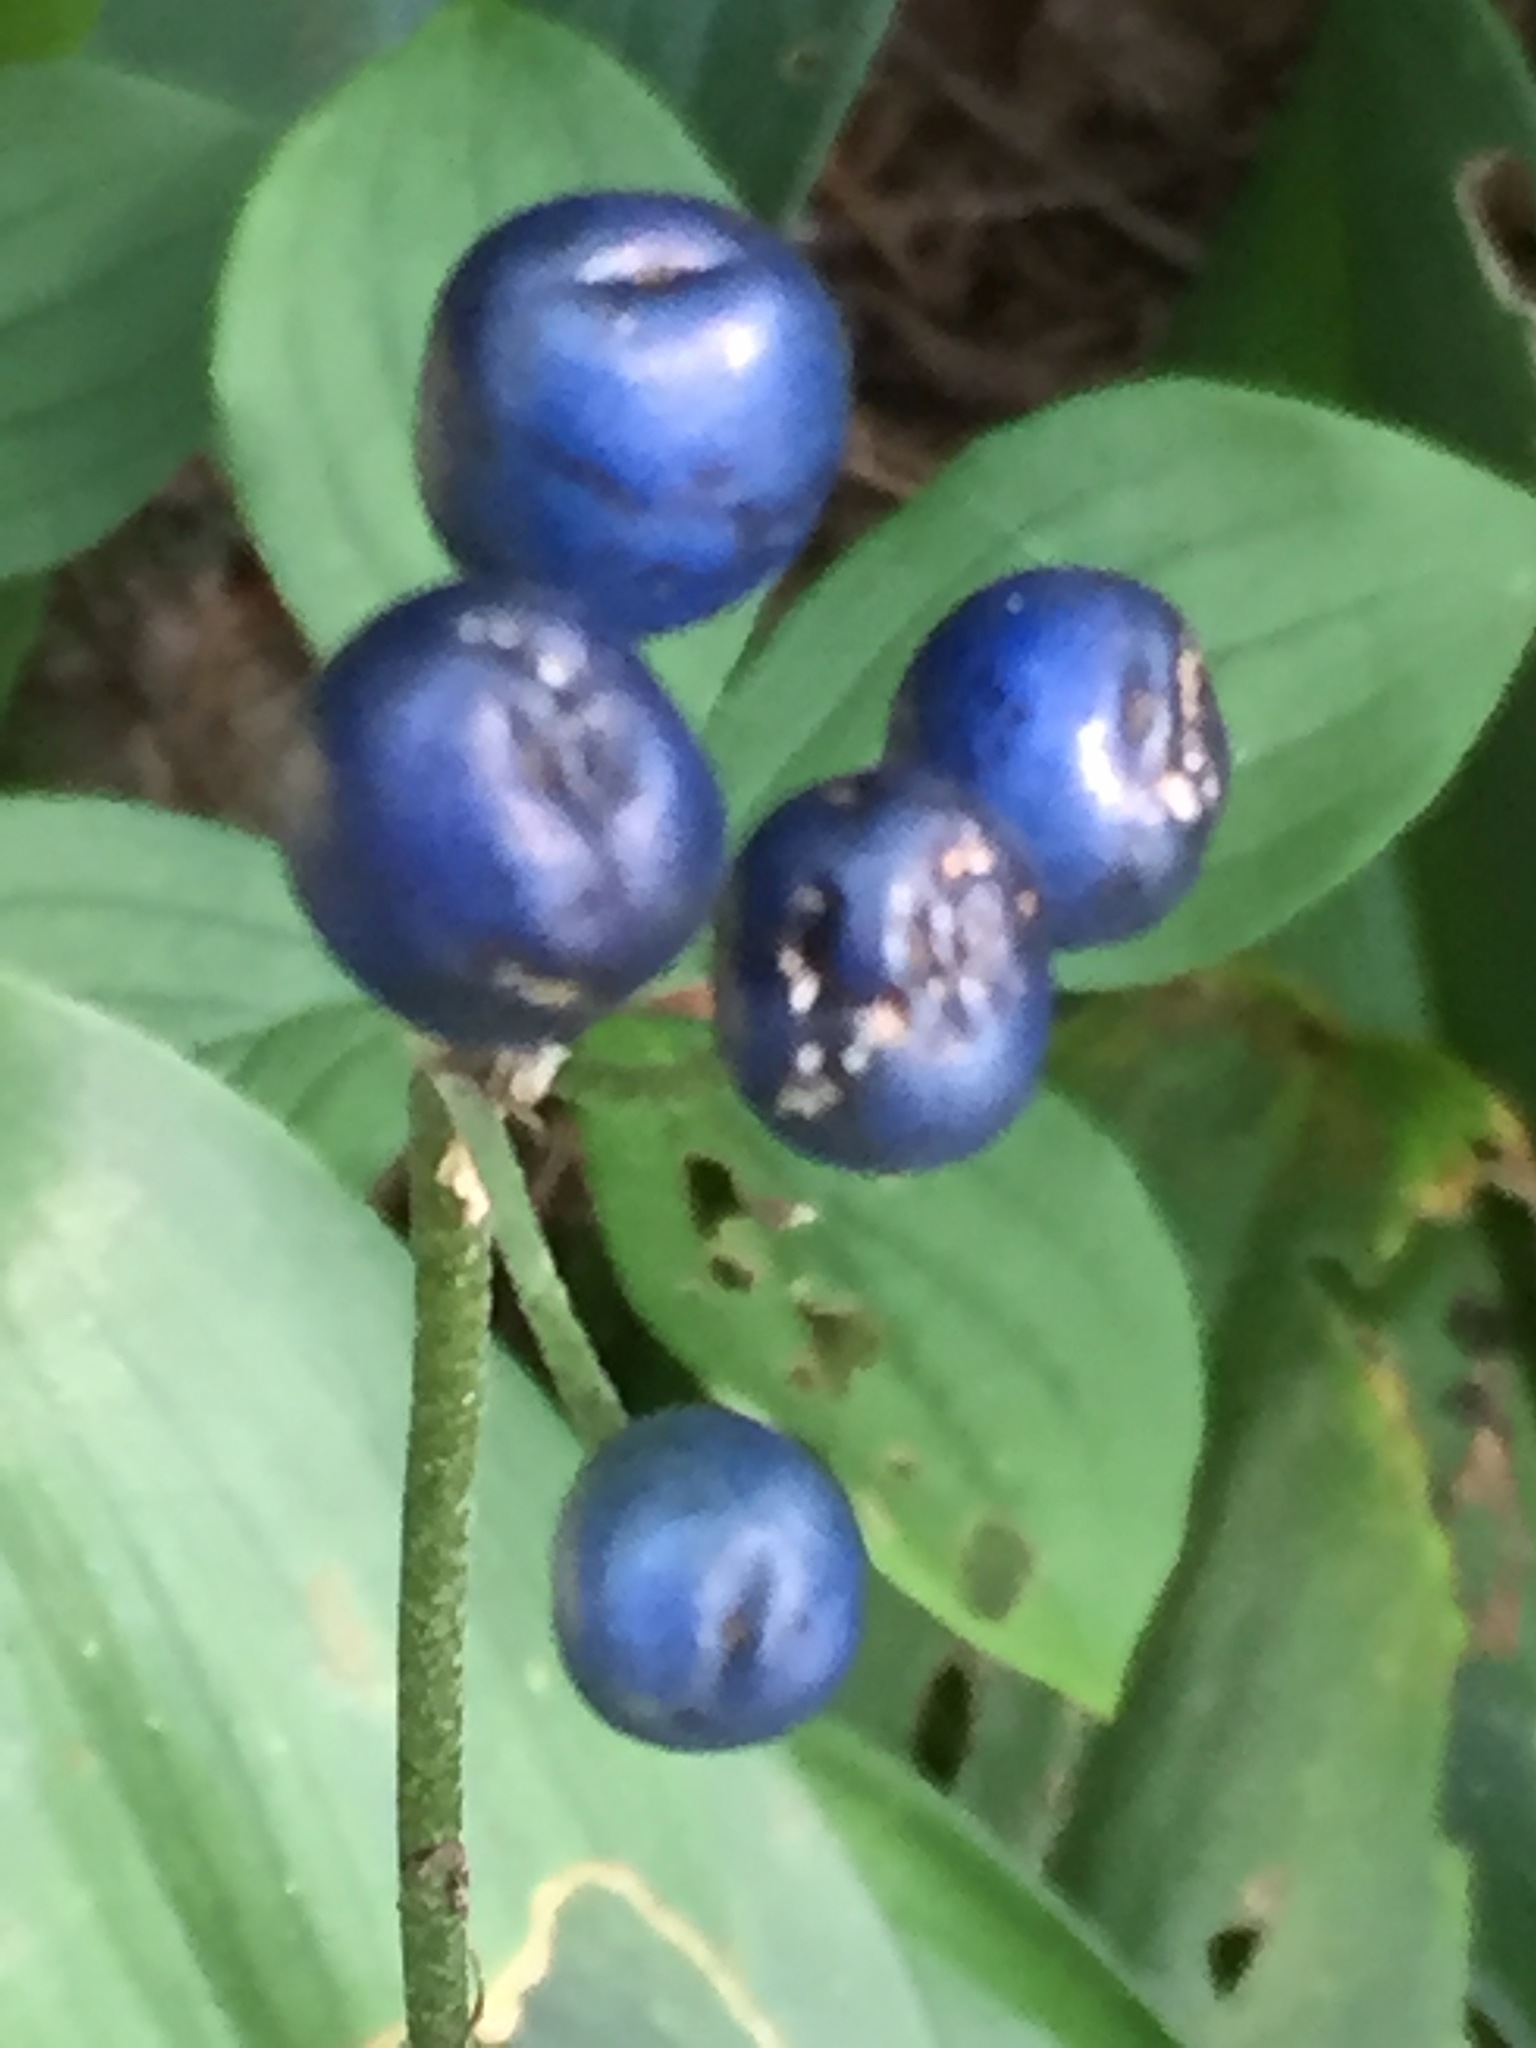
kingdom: Plantae
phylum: Tracheophyta
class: Liliopsida
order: Liliales
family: Liliaceae
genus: Clintonia
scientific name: Clintonia borealis
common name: Yellow clintonia
